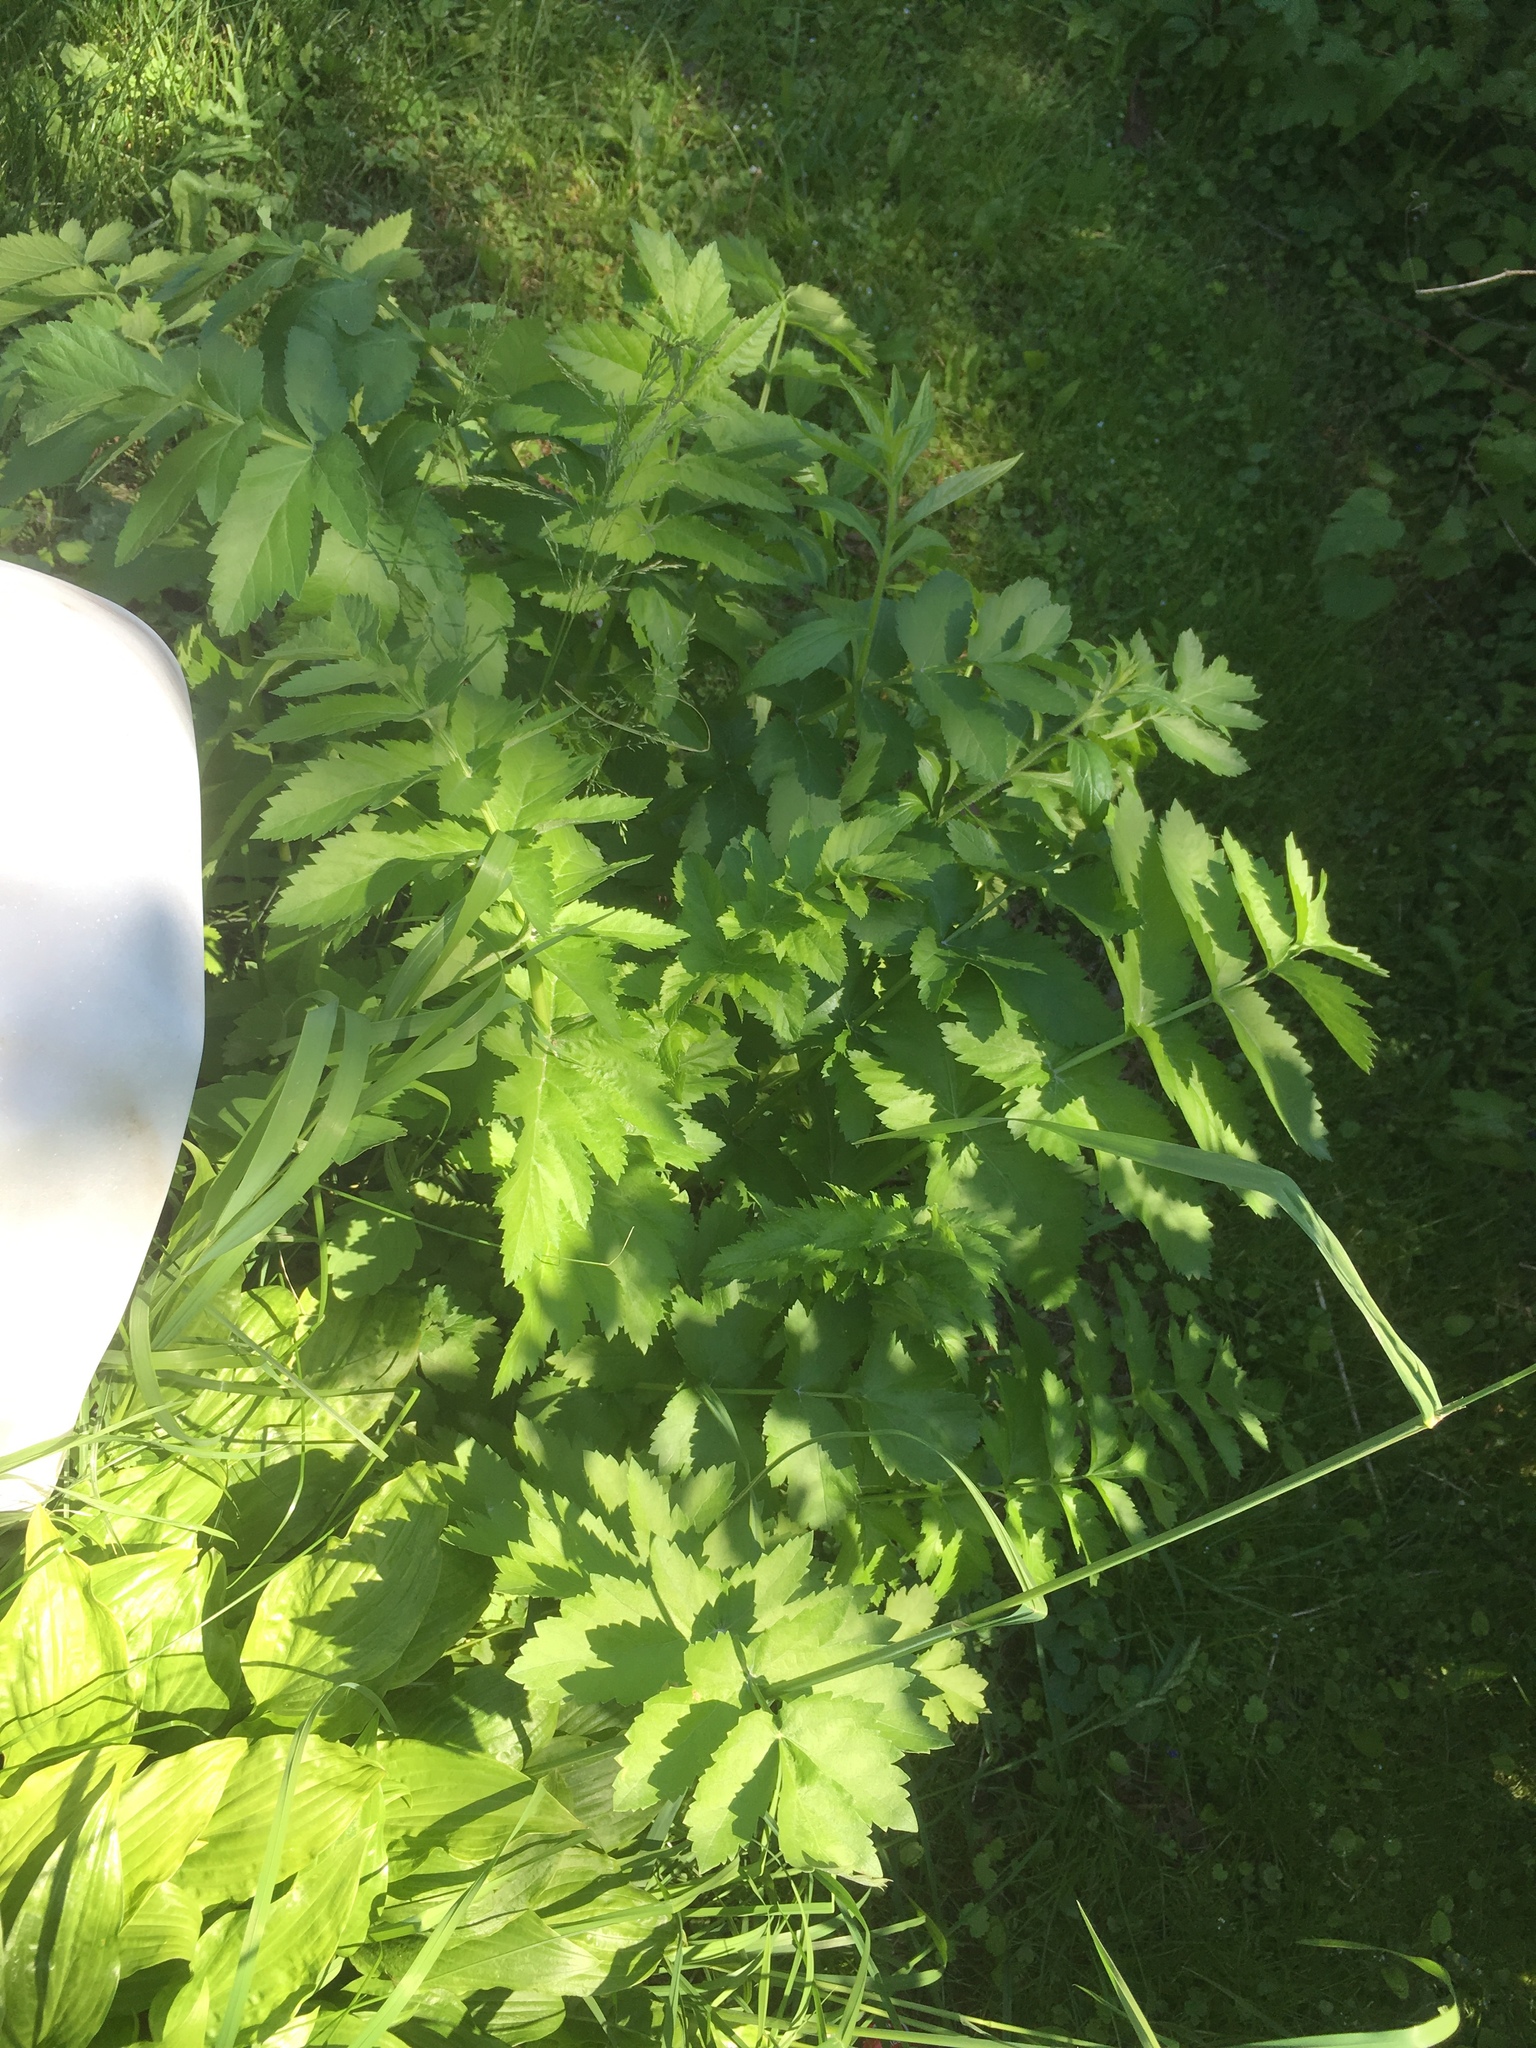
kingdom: Plantae
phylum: Tracheophyta
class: Magnoliopsida
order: Apiales
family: Apiaceae
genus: Pastinaca
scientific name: Pastinaca sativa
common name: Wild parsnip
